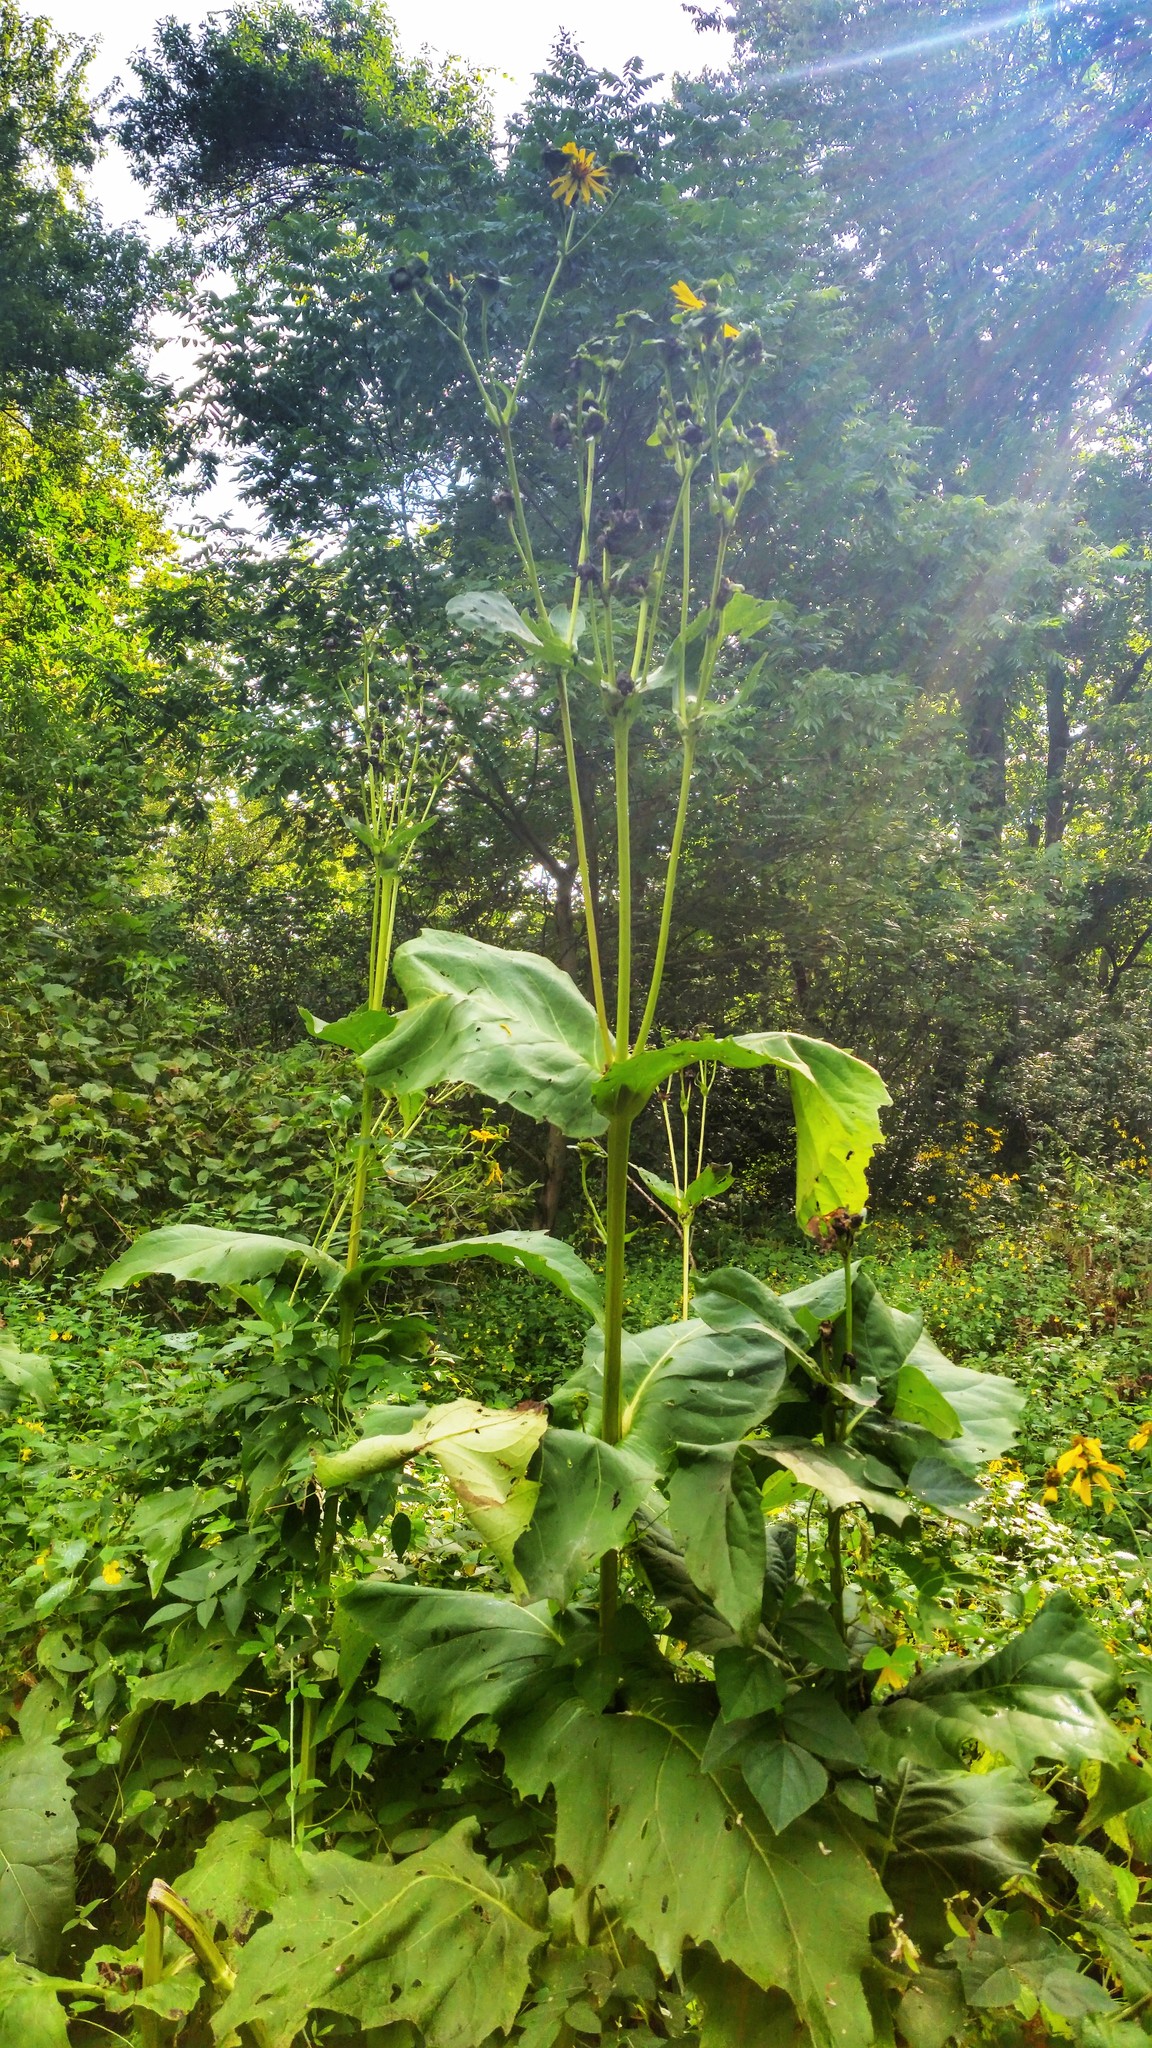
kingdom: Plantae
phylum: Tracheophyta
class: Magnoliopsida
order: Asterales
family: Asteraceae
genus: Silphium
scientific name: Silphium perfoliatum
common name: Cup-plant
